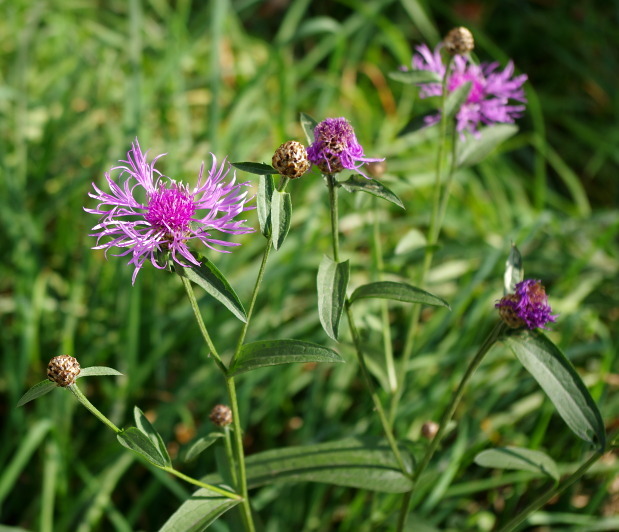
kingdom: Plantae
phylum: Tracheophyta
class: Magnoliopsida
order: Asterales
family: Asteraceae
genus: Centaurea
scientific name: Centaurea jacea
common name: Brown knapweed
